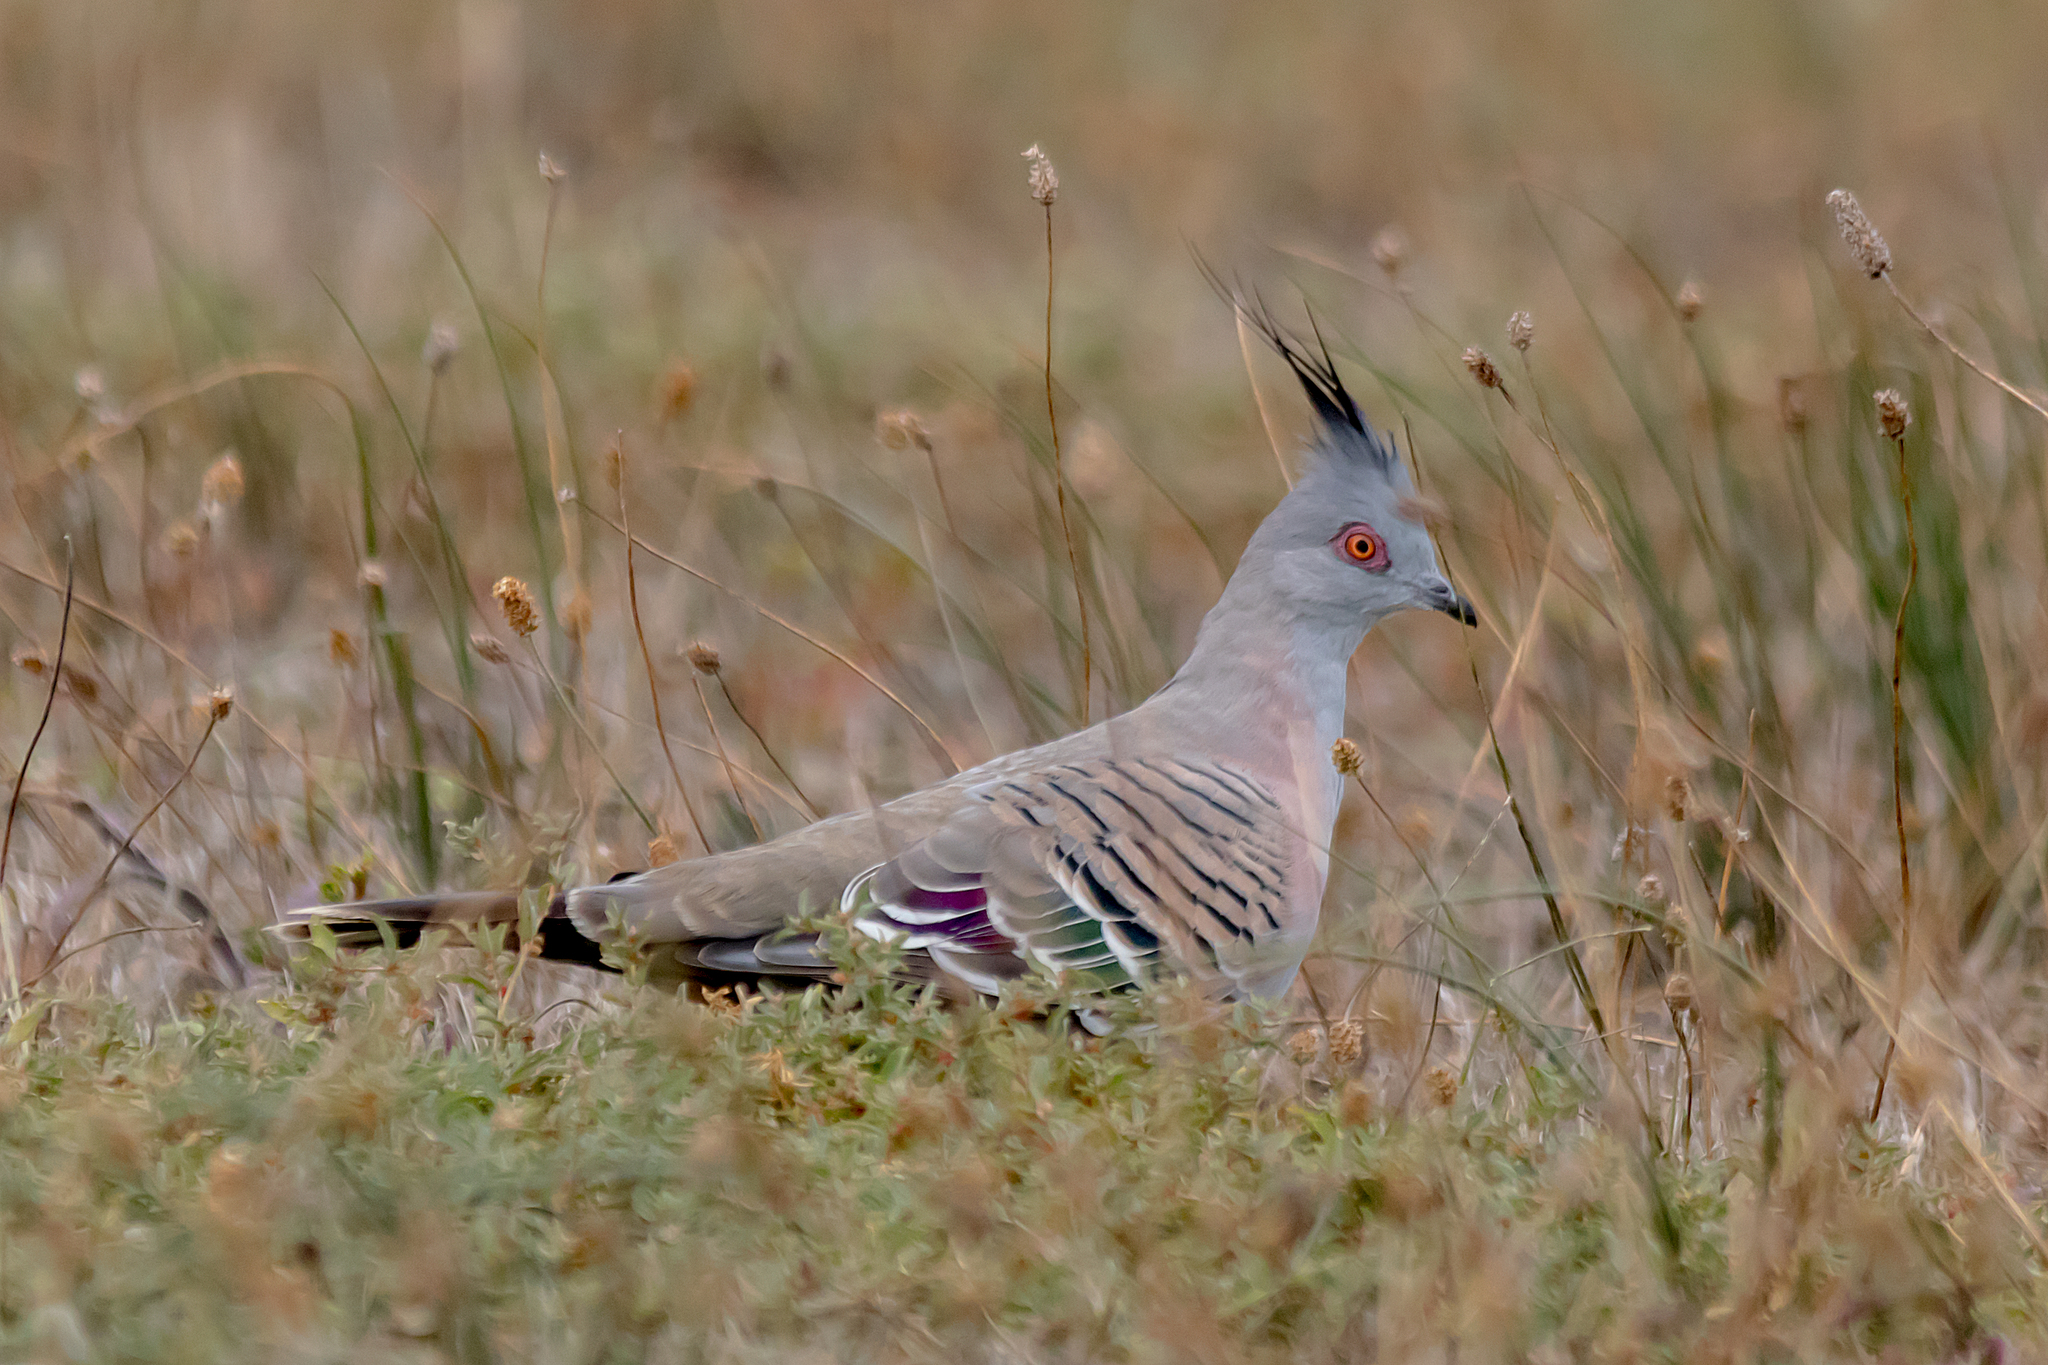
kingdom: Animalia
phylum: Chordata
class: Aves
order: Columbiformes
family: Columbidae
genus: Ocyphaps
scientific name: Ocyphaps lophotes
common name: Crested pigeon
